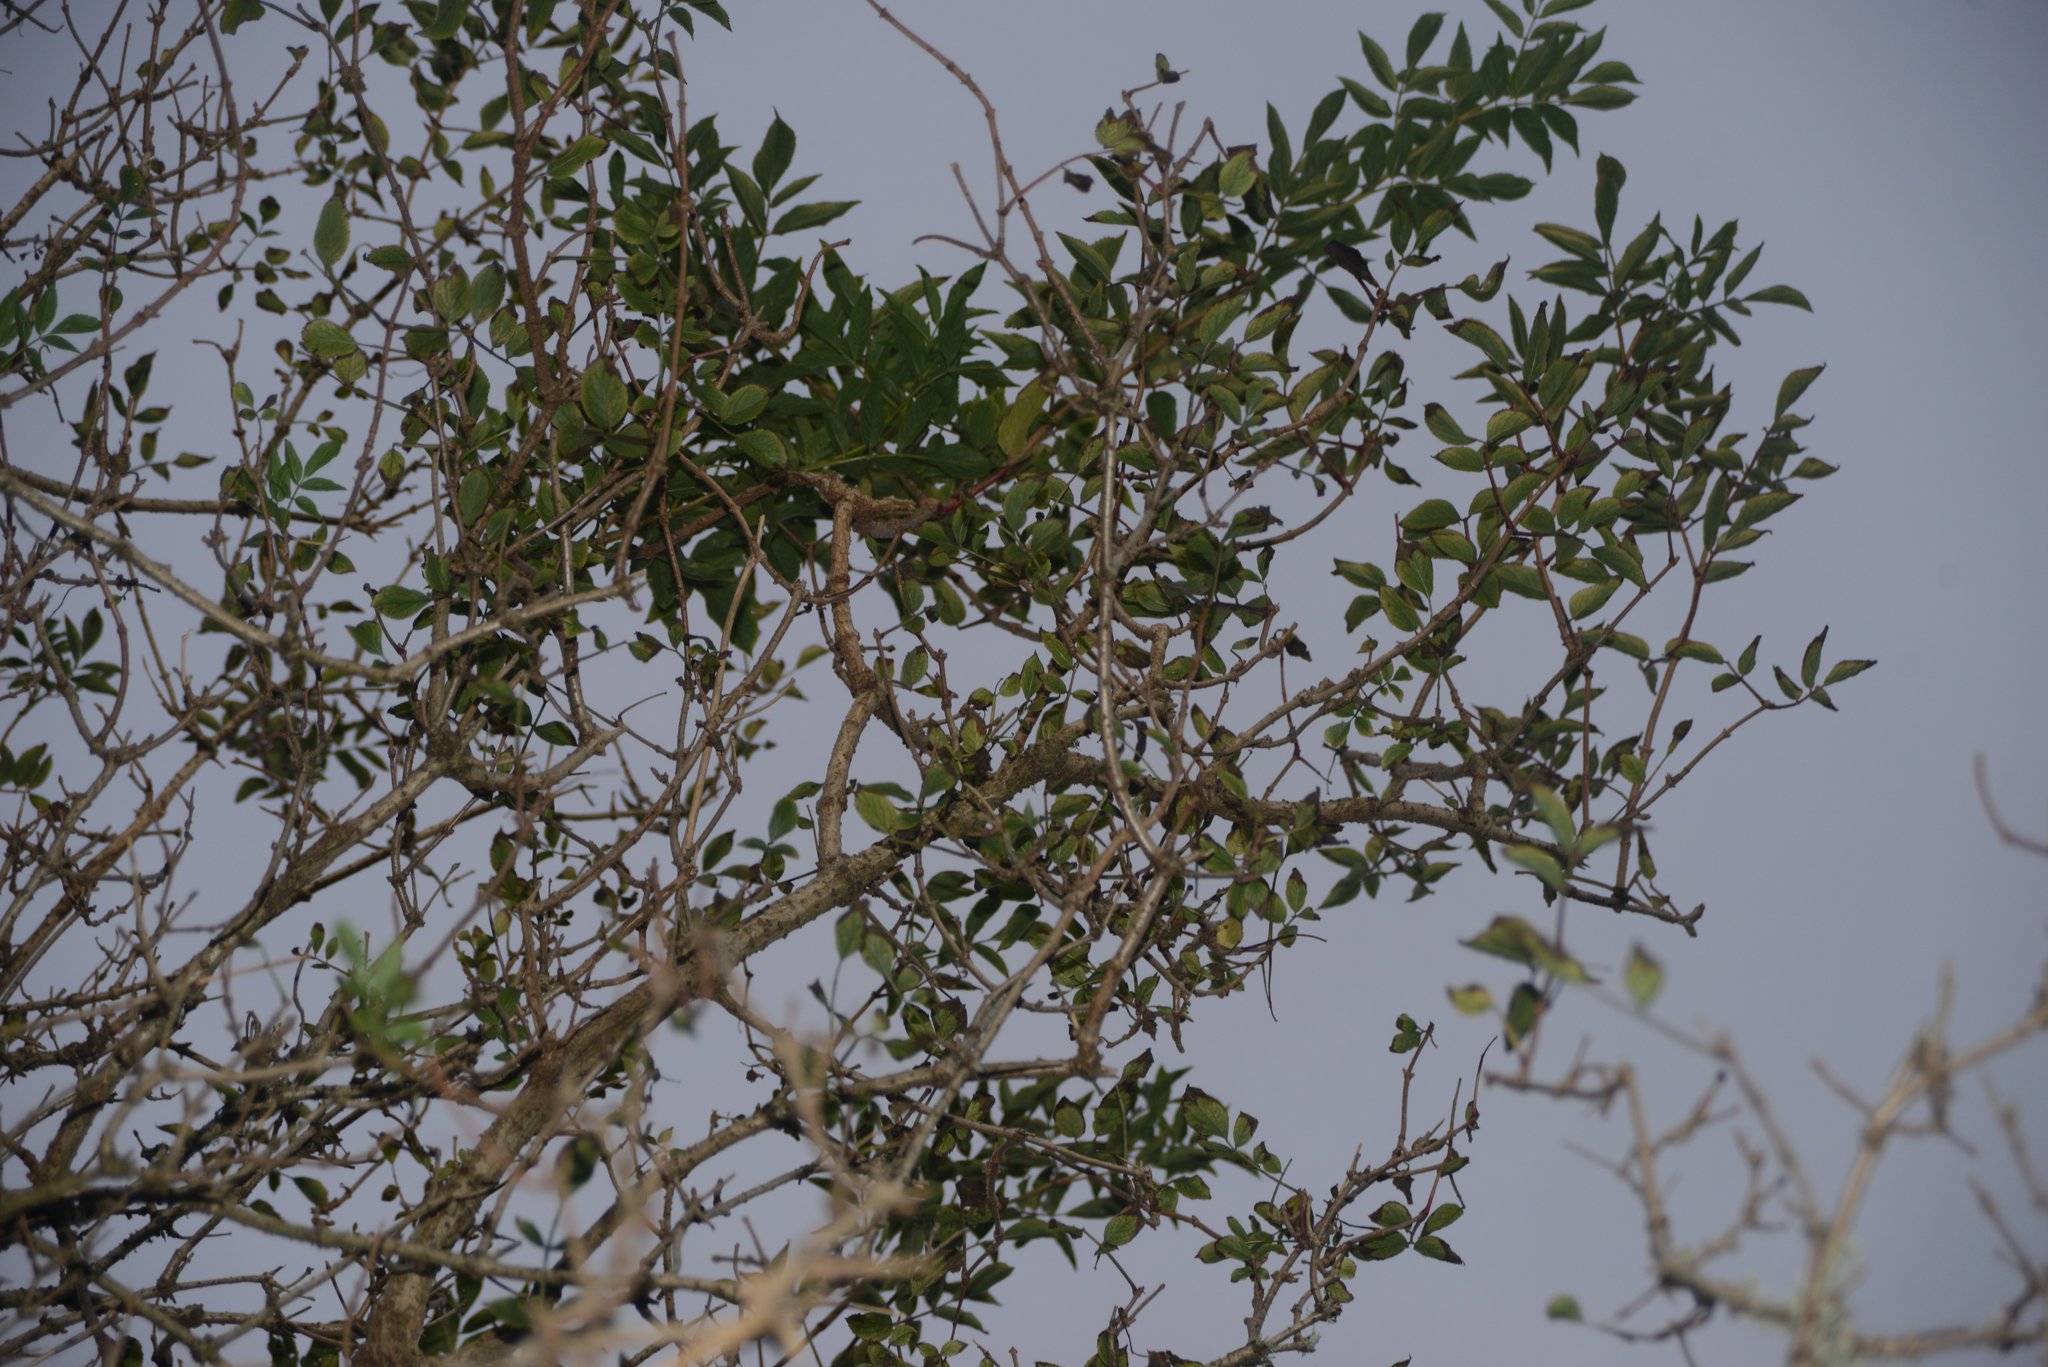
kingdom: Plantae
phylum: Tracheophyta
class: Magnoliopsida
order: Dipsacales
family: Viburnaceae
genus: Sambucus
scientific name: Sambucus nigra
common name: Elder
